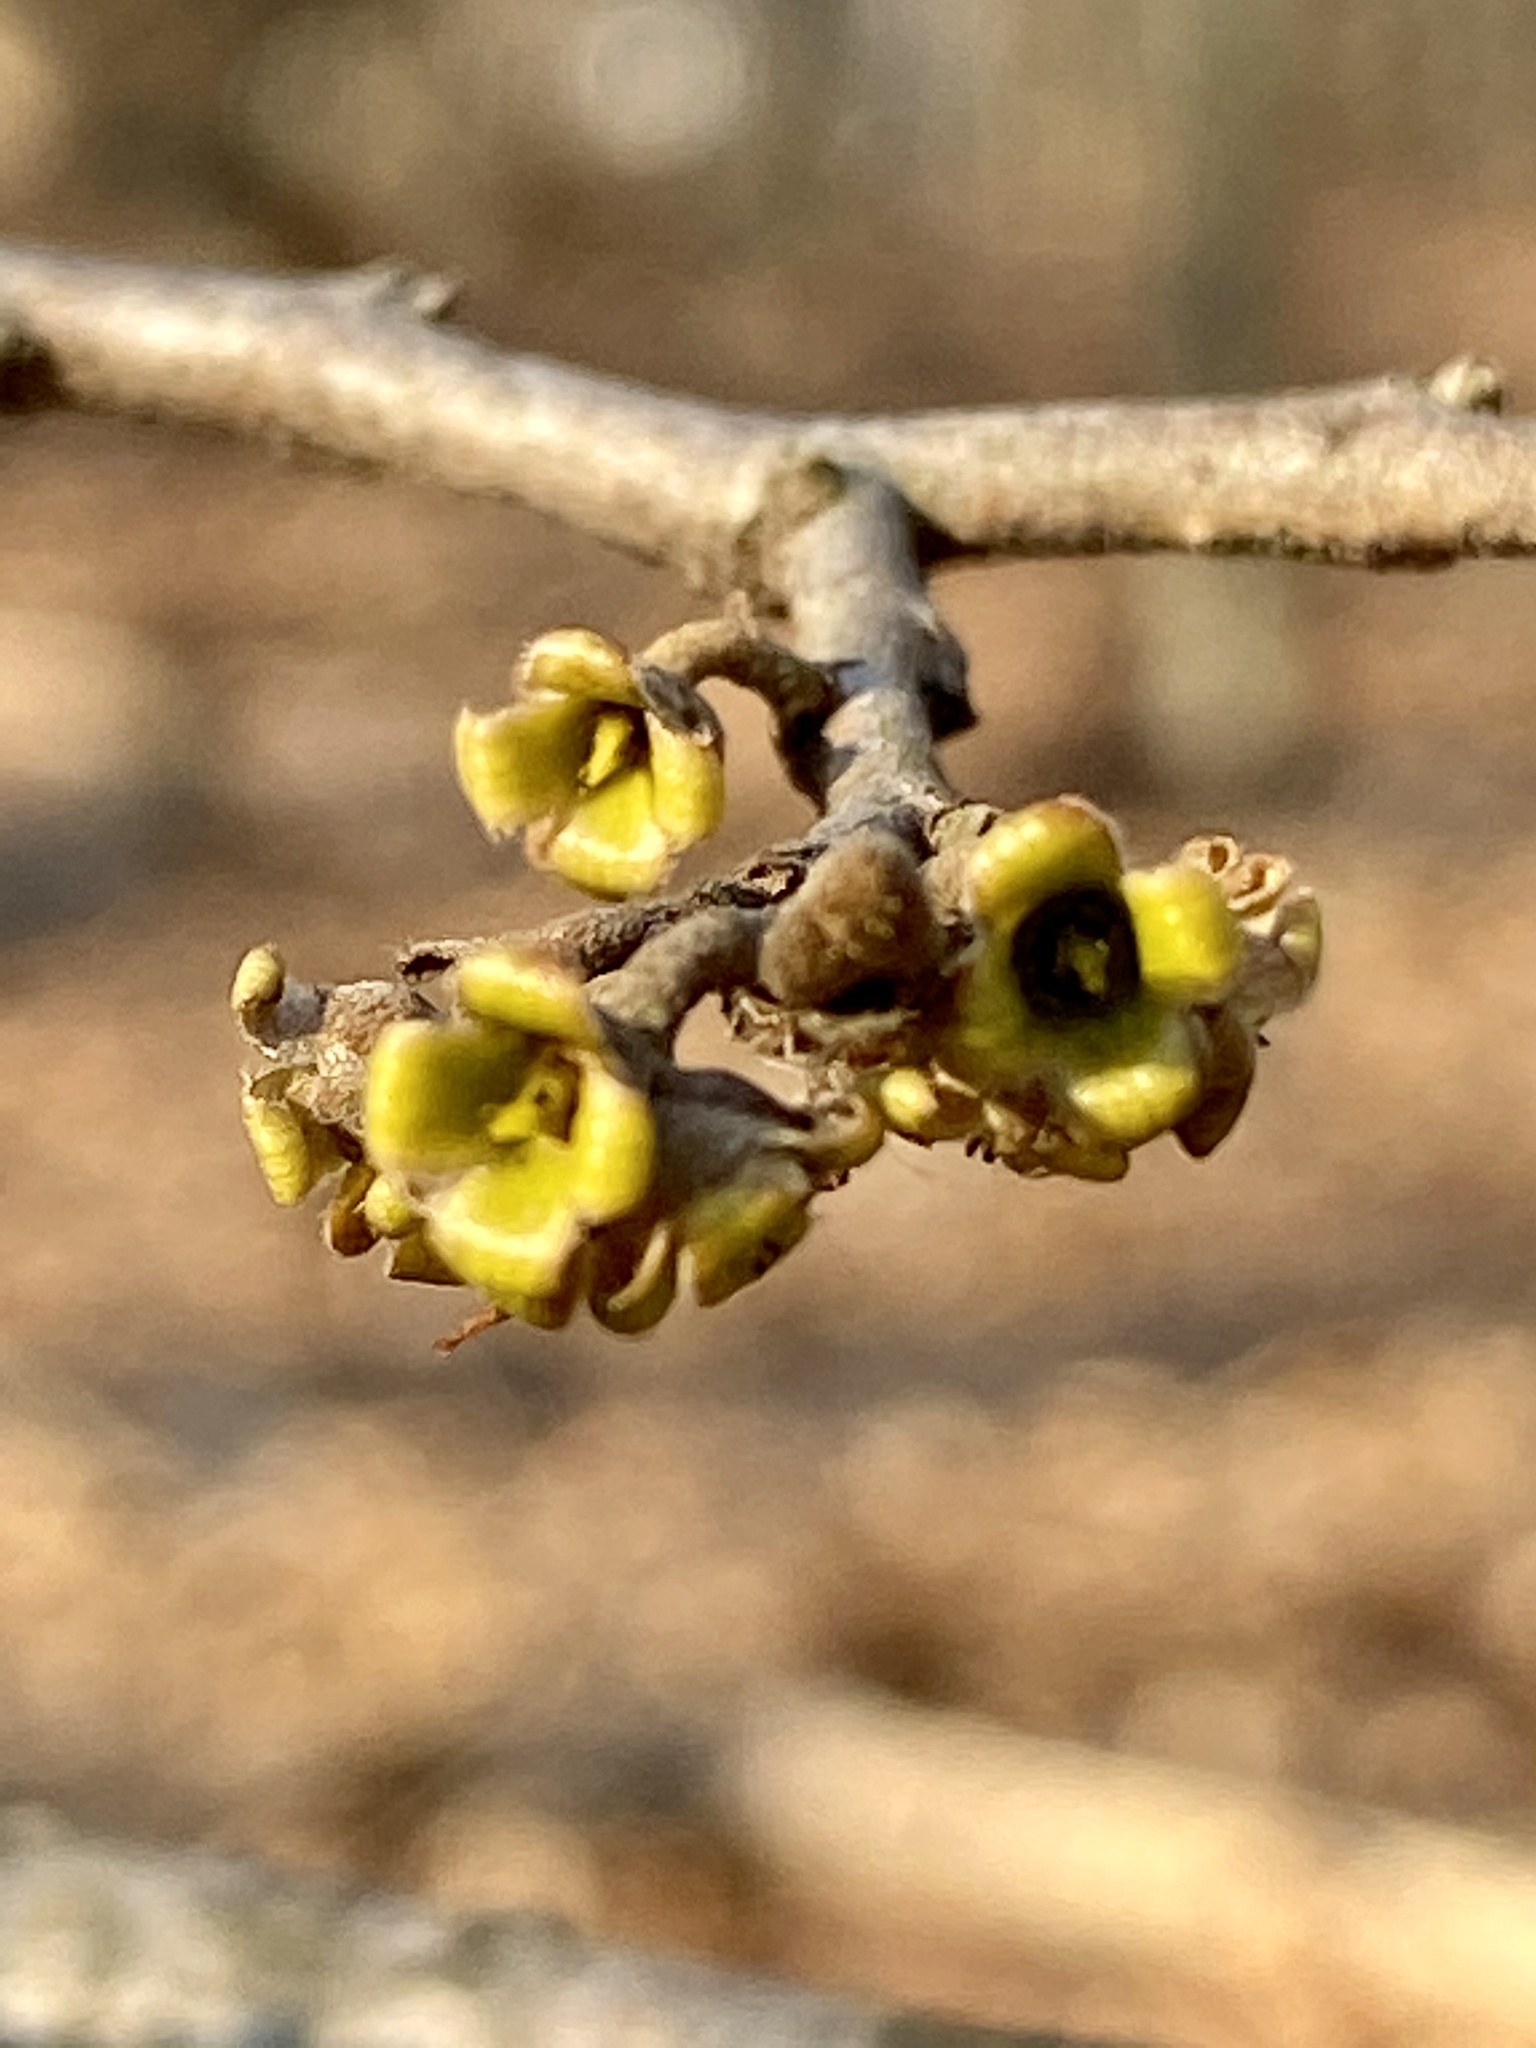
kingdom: Plantae
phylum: Tracheophyta
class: Magnoliopsida
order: Saxifragales
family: Hamamelidaceae
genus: Hamamelis
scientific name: Hamamelis virginiana
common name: Witch-hazel
